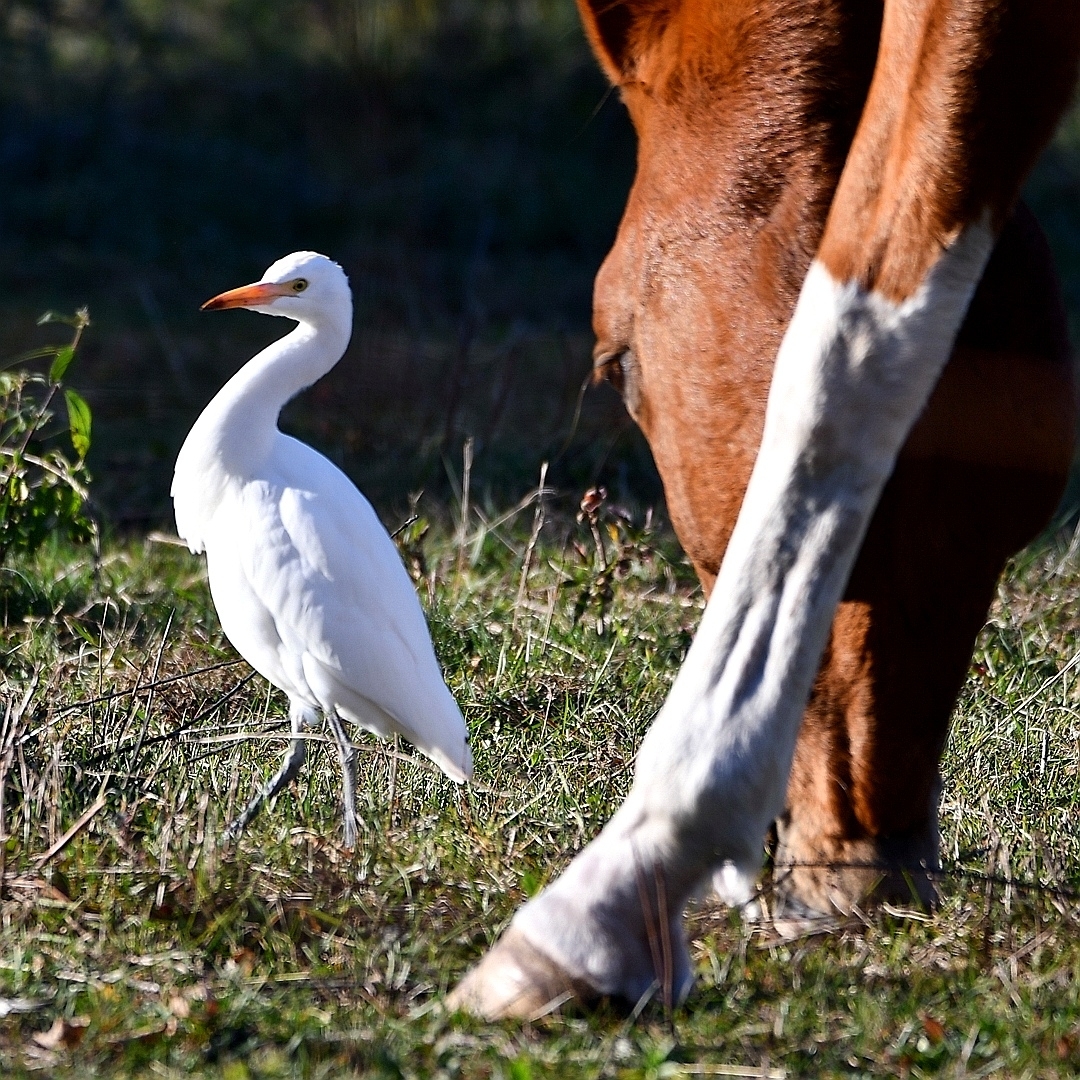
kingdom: Animalia
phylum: Chordata
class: Aves
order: Pelecaniformes
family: Ardeidae
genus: Bubulcus
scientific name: Bubulcus ibis
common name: Cattle egret
